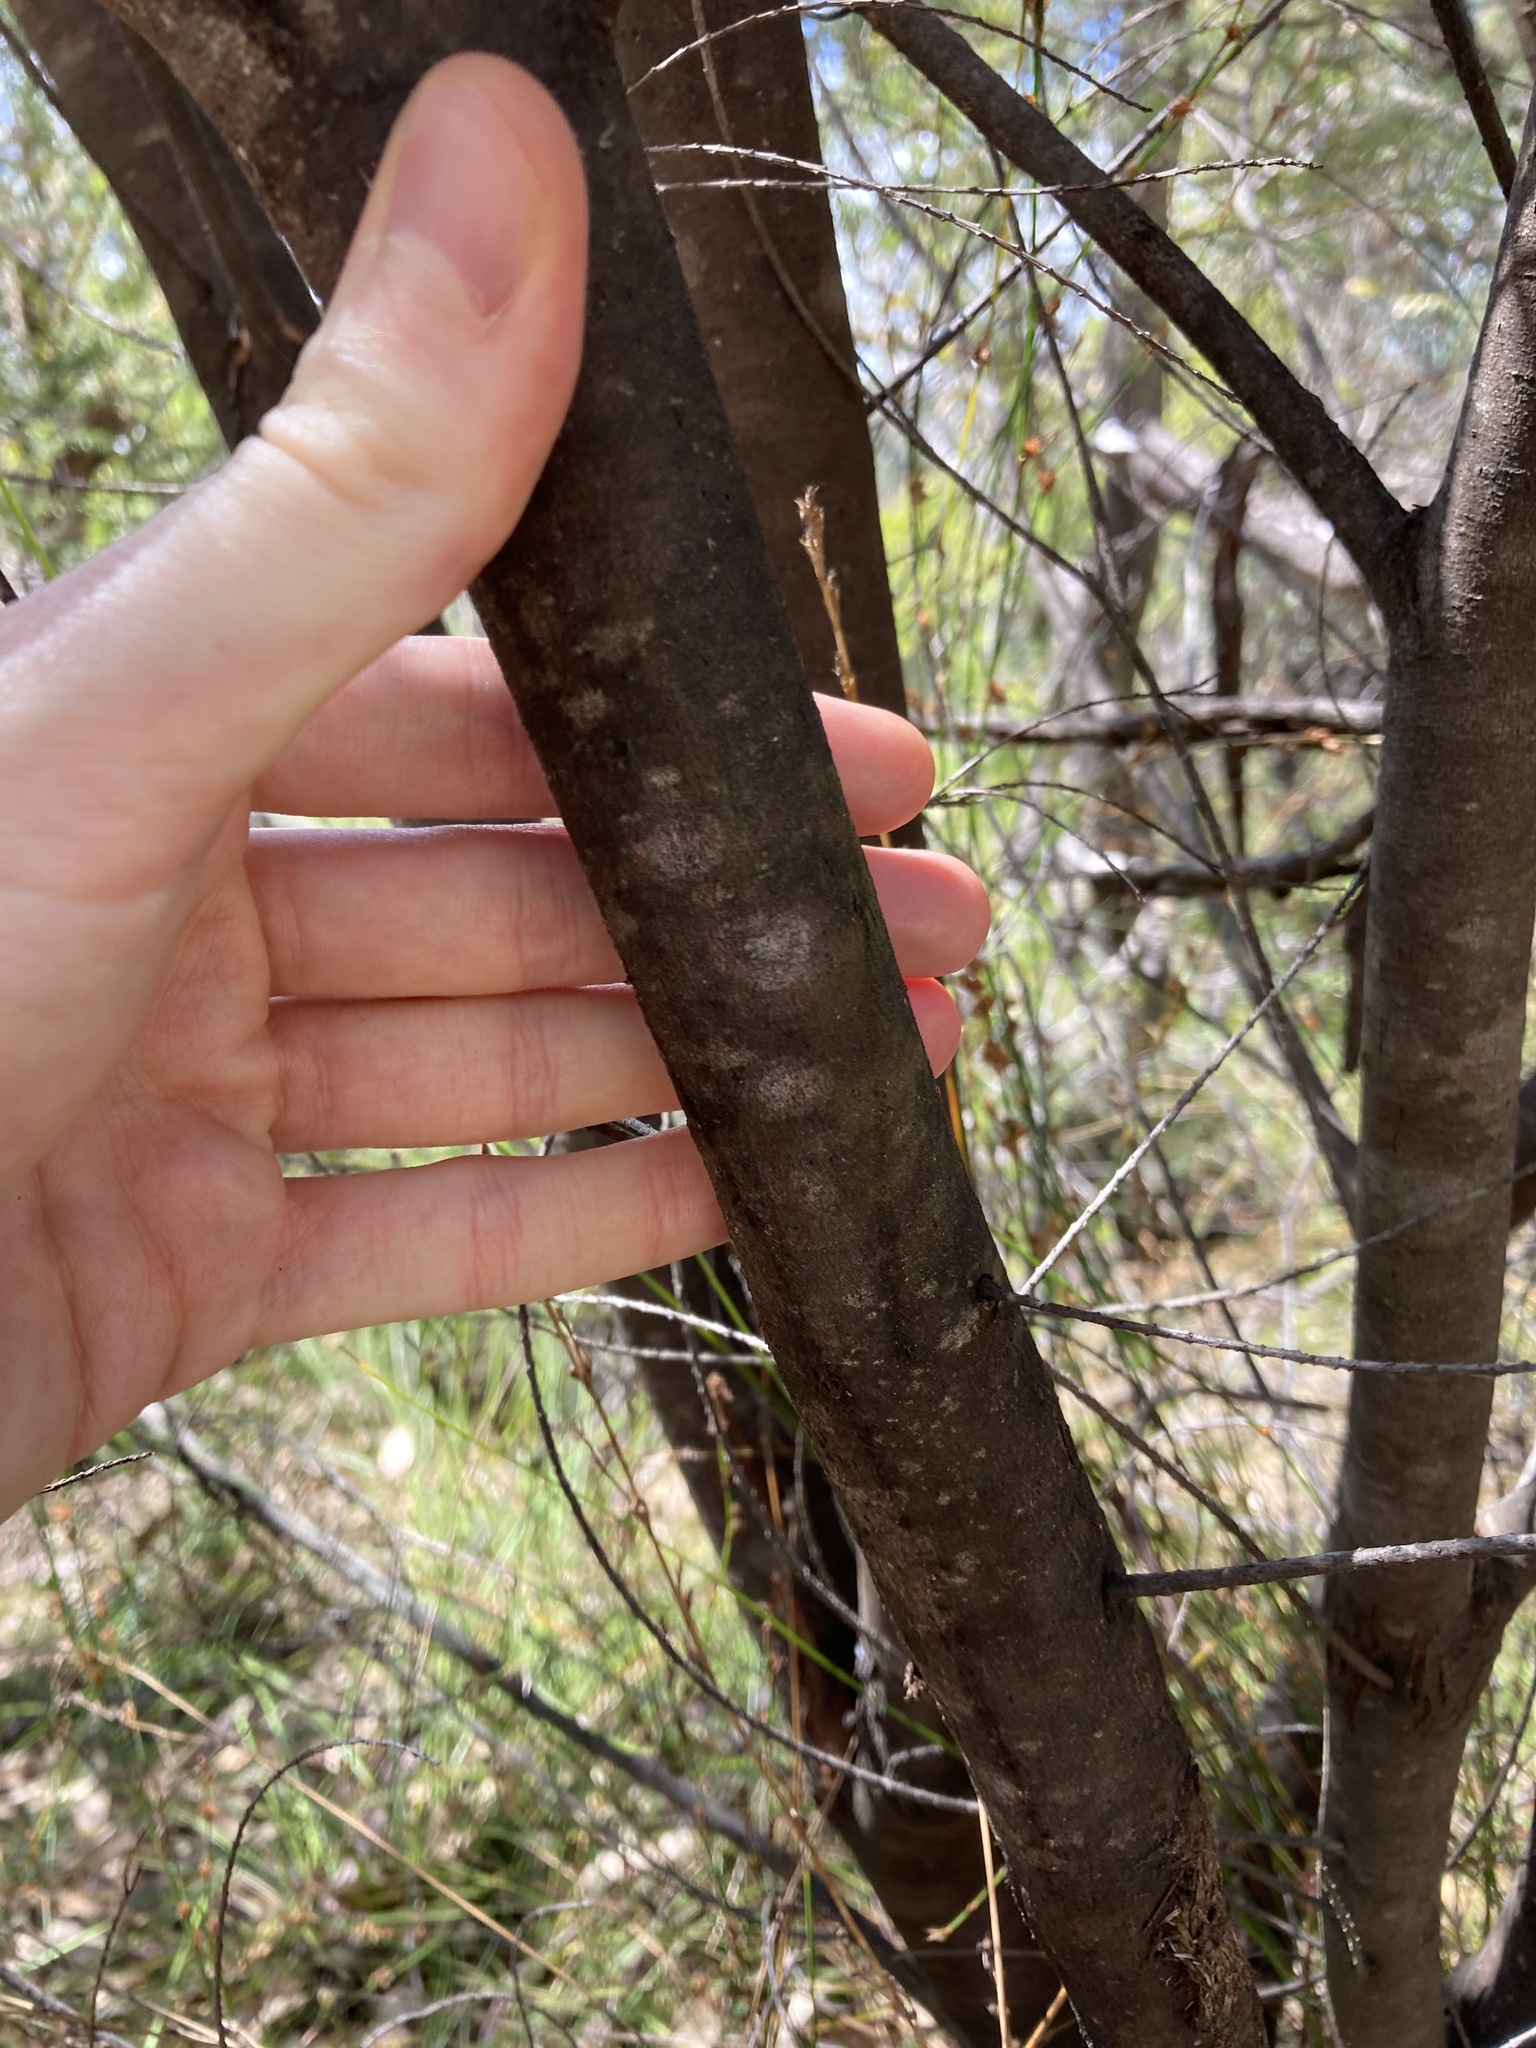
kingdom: Plantae
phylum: Tracheophyta
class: Magnoliopsida
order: Fabales
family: Fabaceae
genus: Acacia
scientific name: Acacia linifolia
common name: White wattle
